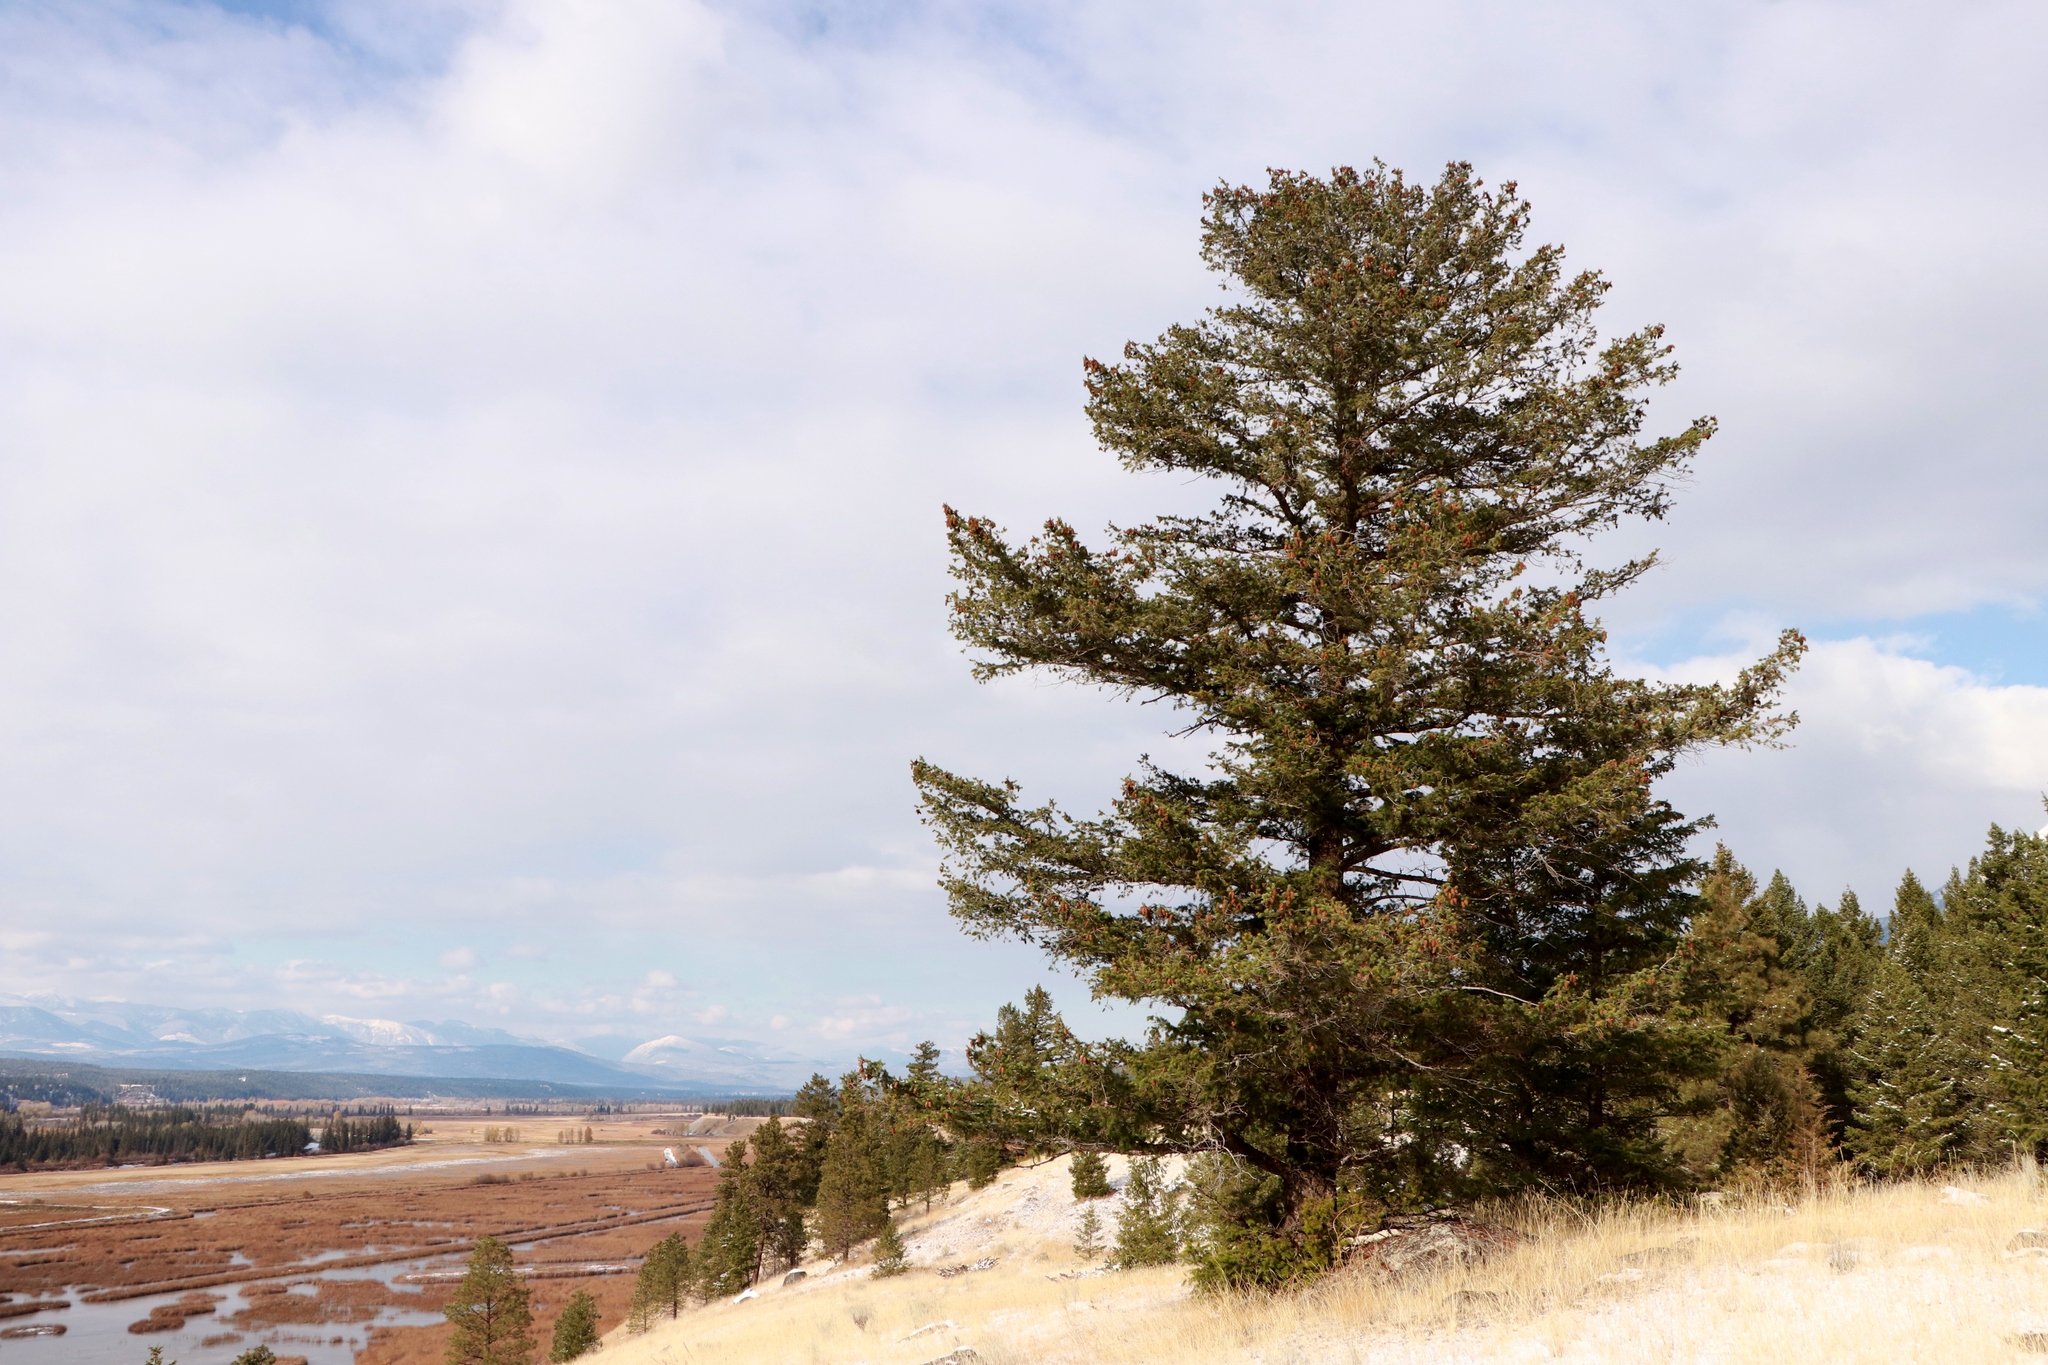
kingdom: Plantae
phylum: Tracheophyta
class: Pinopsida
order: Pinales
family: Pinaceae
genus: Pseudotsuga
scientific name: Pseudotsuga menziesii
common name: Douglas fir
